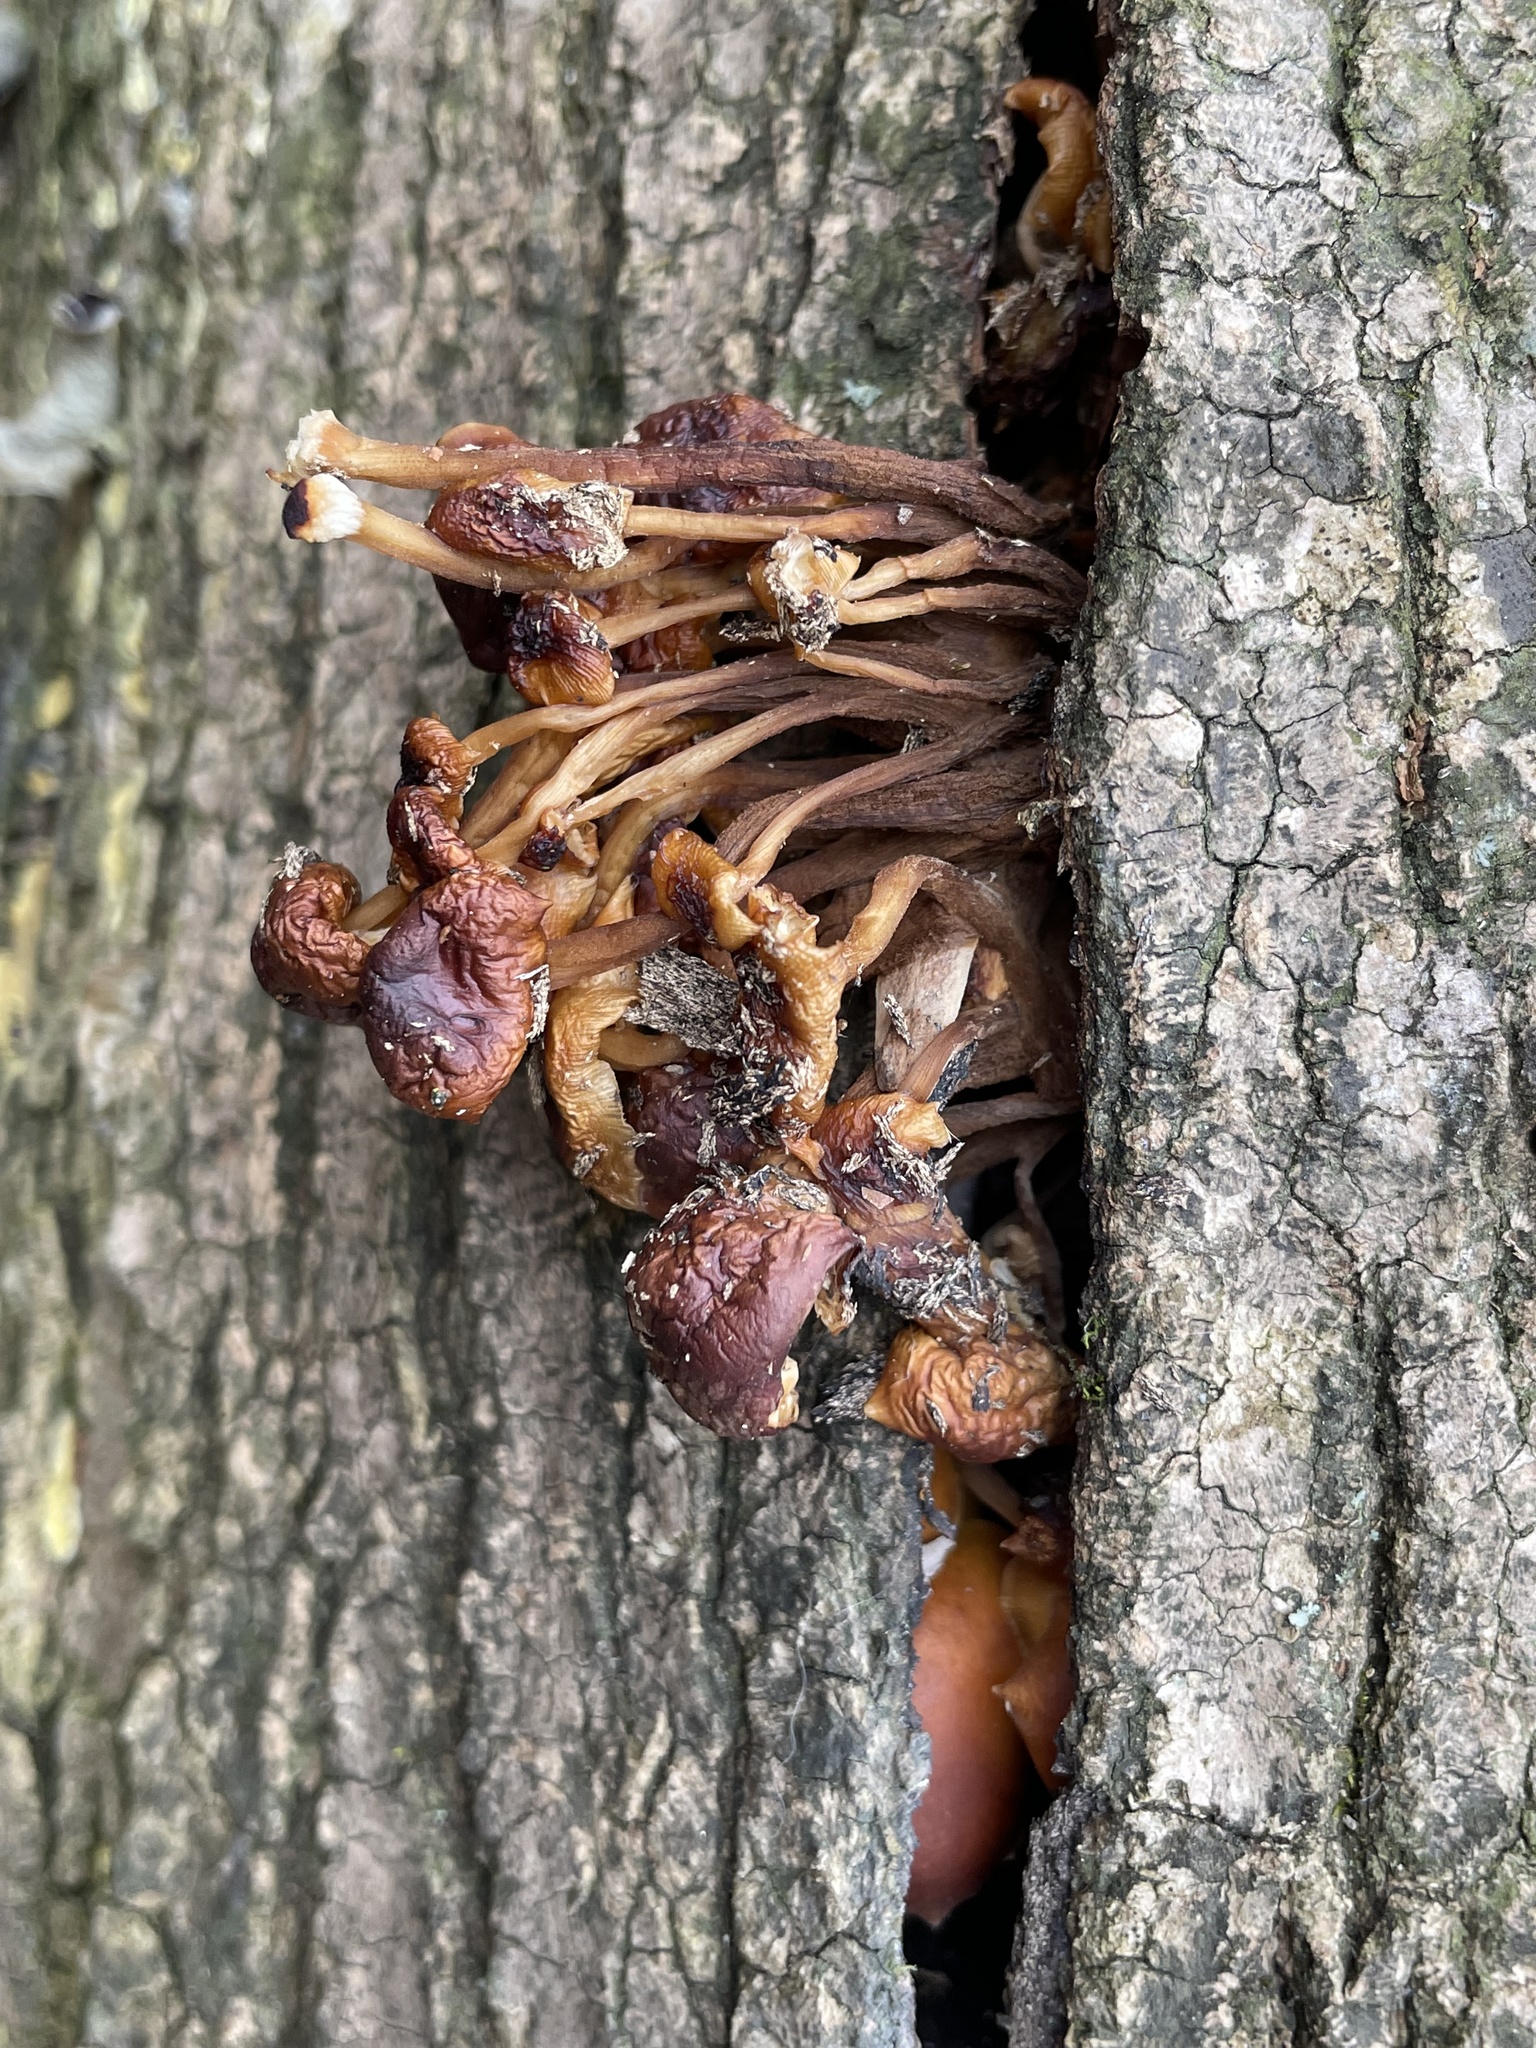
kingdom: Fungi
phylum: Basidiomycota
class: Agaricomycetes
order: Agaricales
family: Physalacriaceae
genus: Flammulina
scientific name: Flammulina velutipes
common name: Velvet shank
